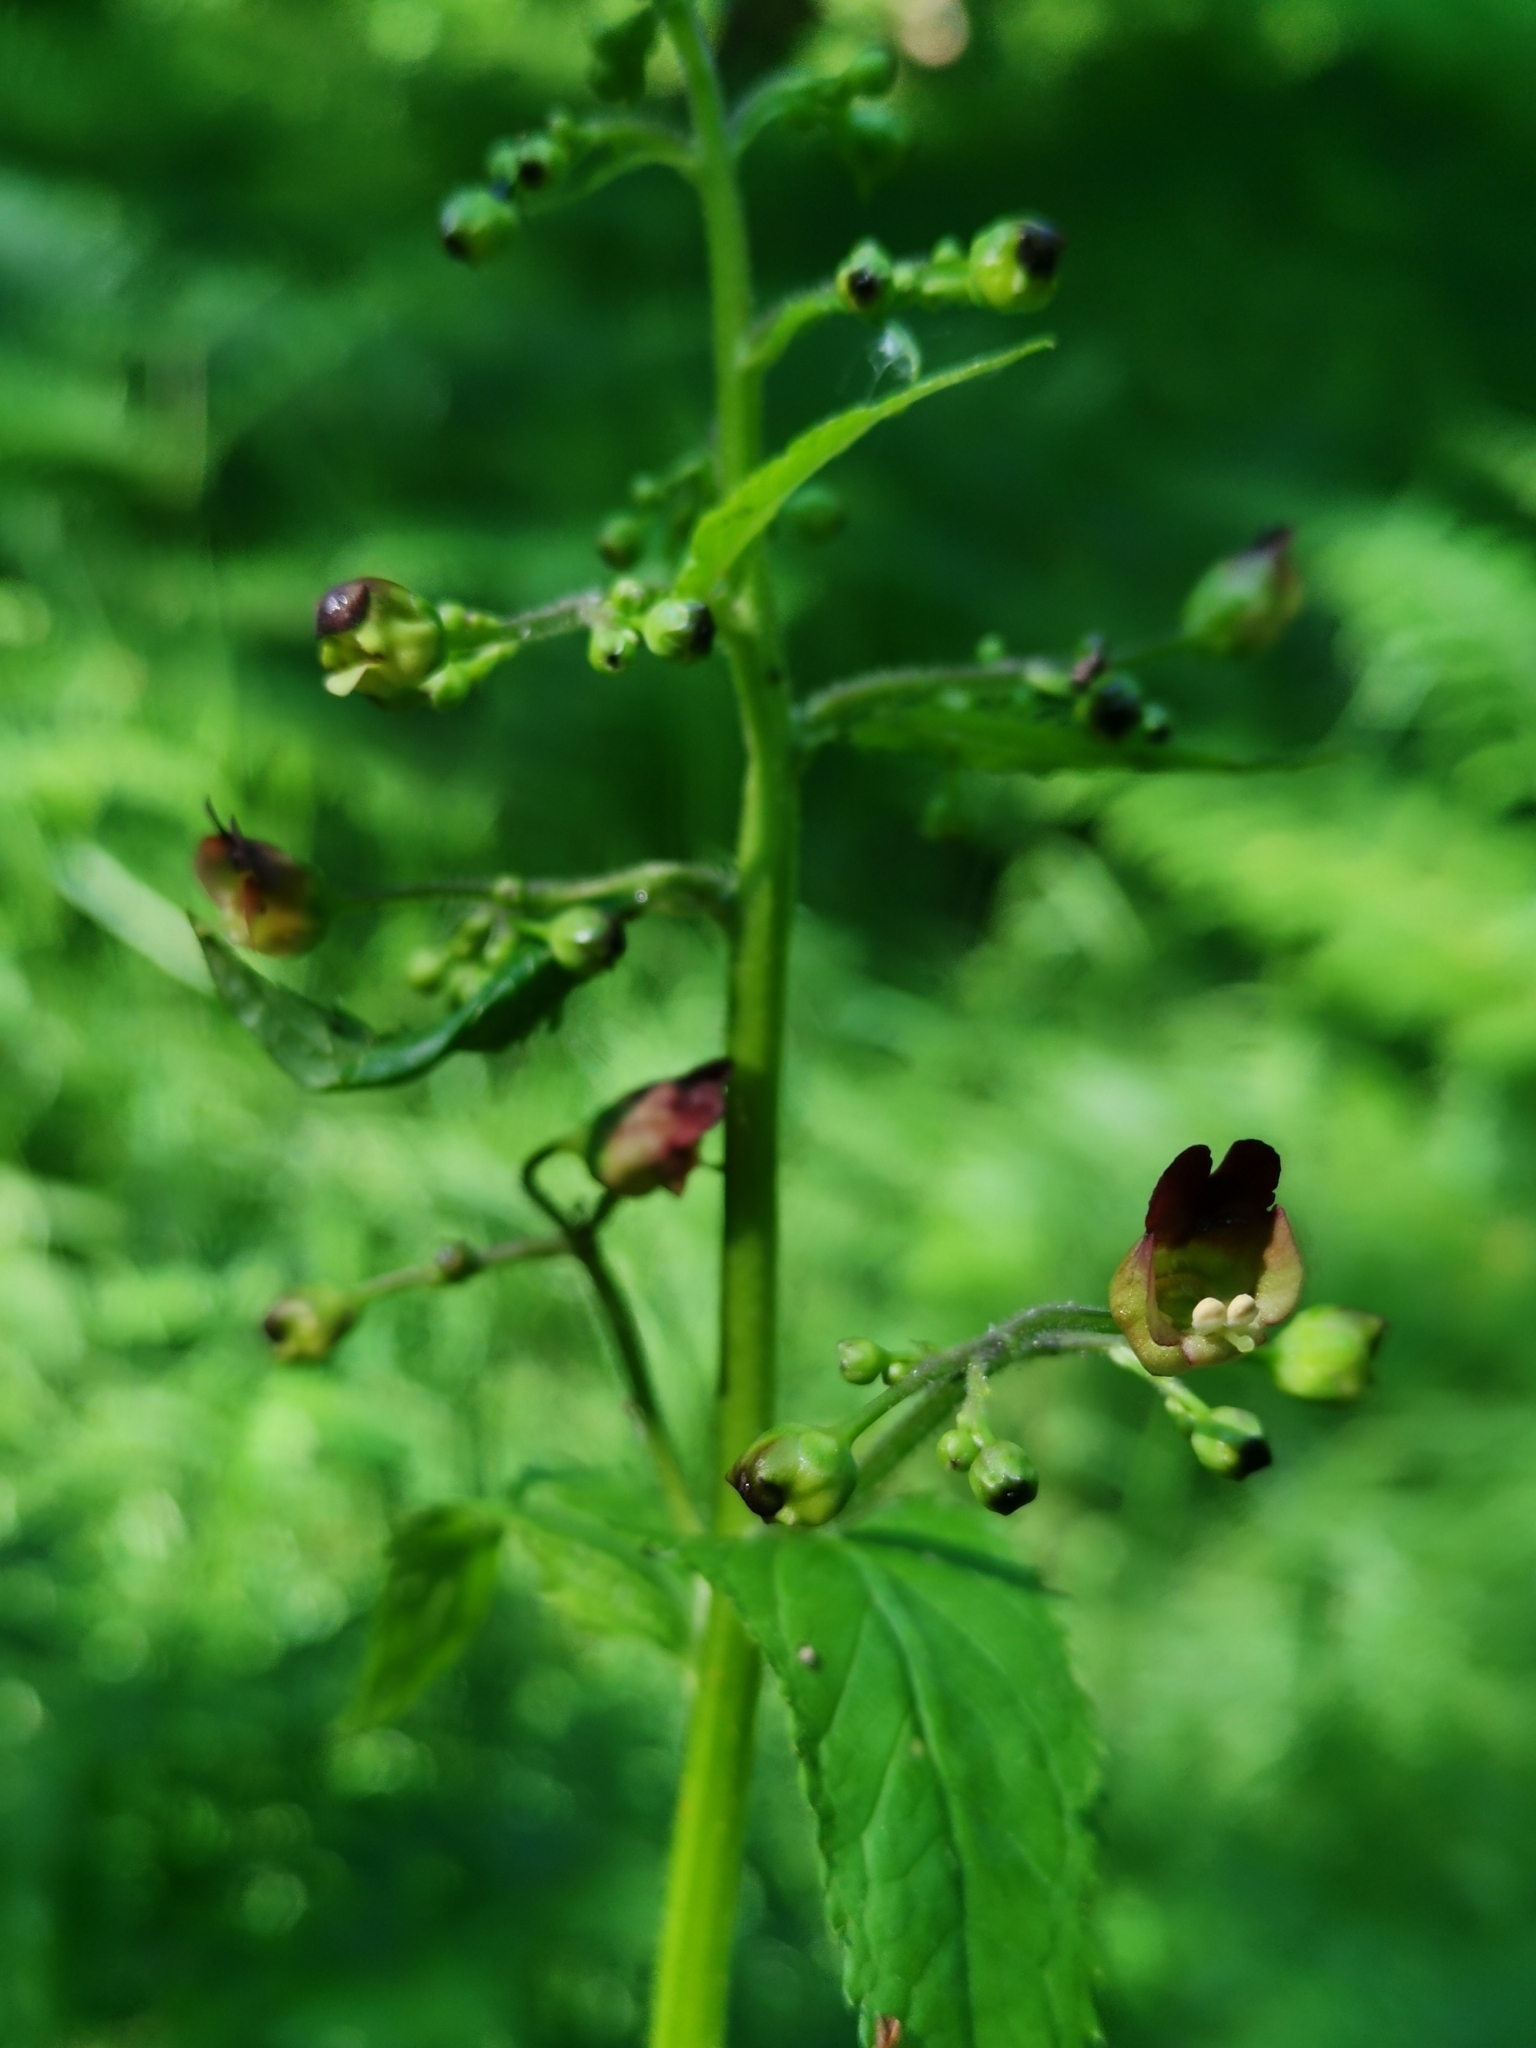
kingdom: Plantae
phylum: Tracheophyta
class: Magnoliopsida
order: Lamiales
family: Scrophulariaceae
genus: Scrophularia
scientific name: Scrophularia nodosa
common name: Common figwort
